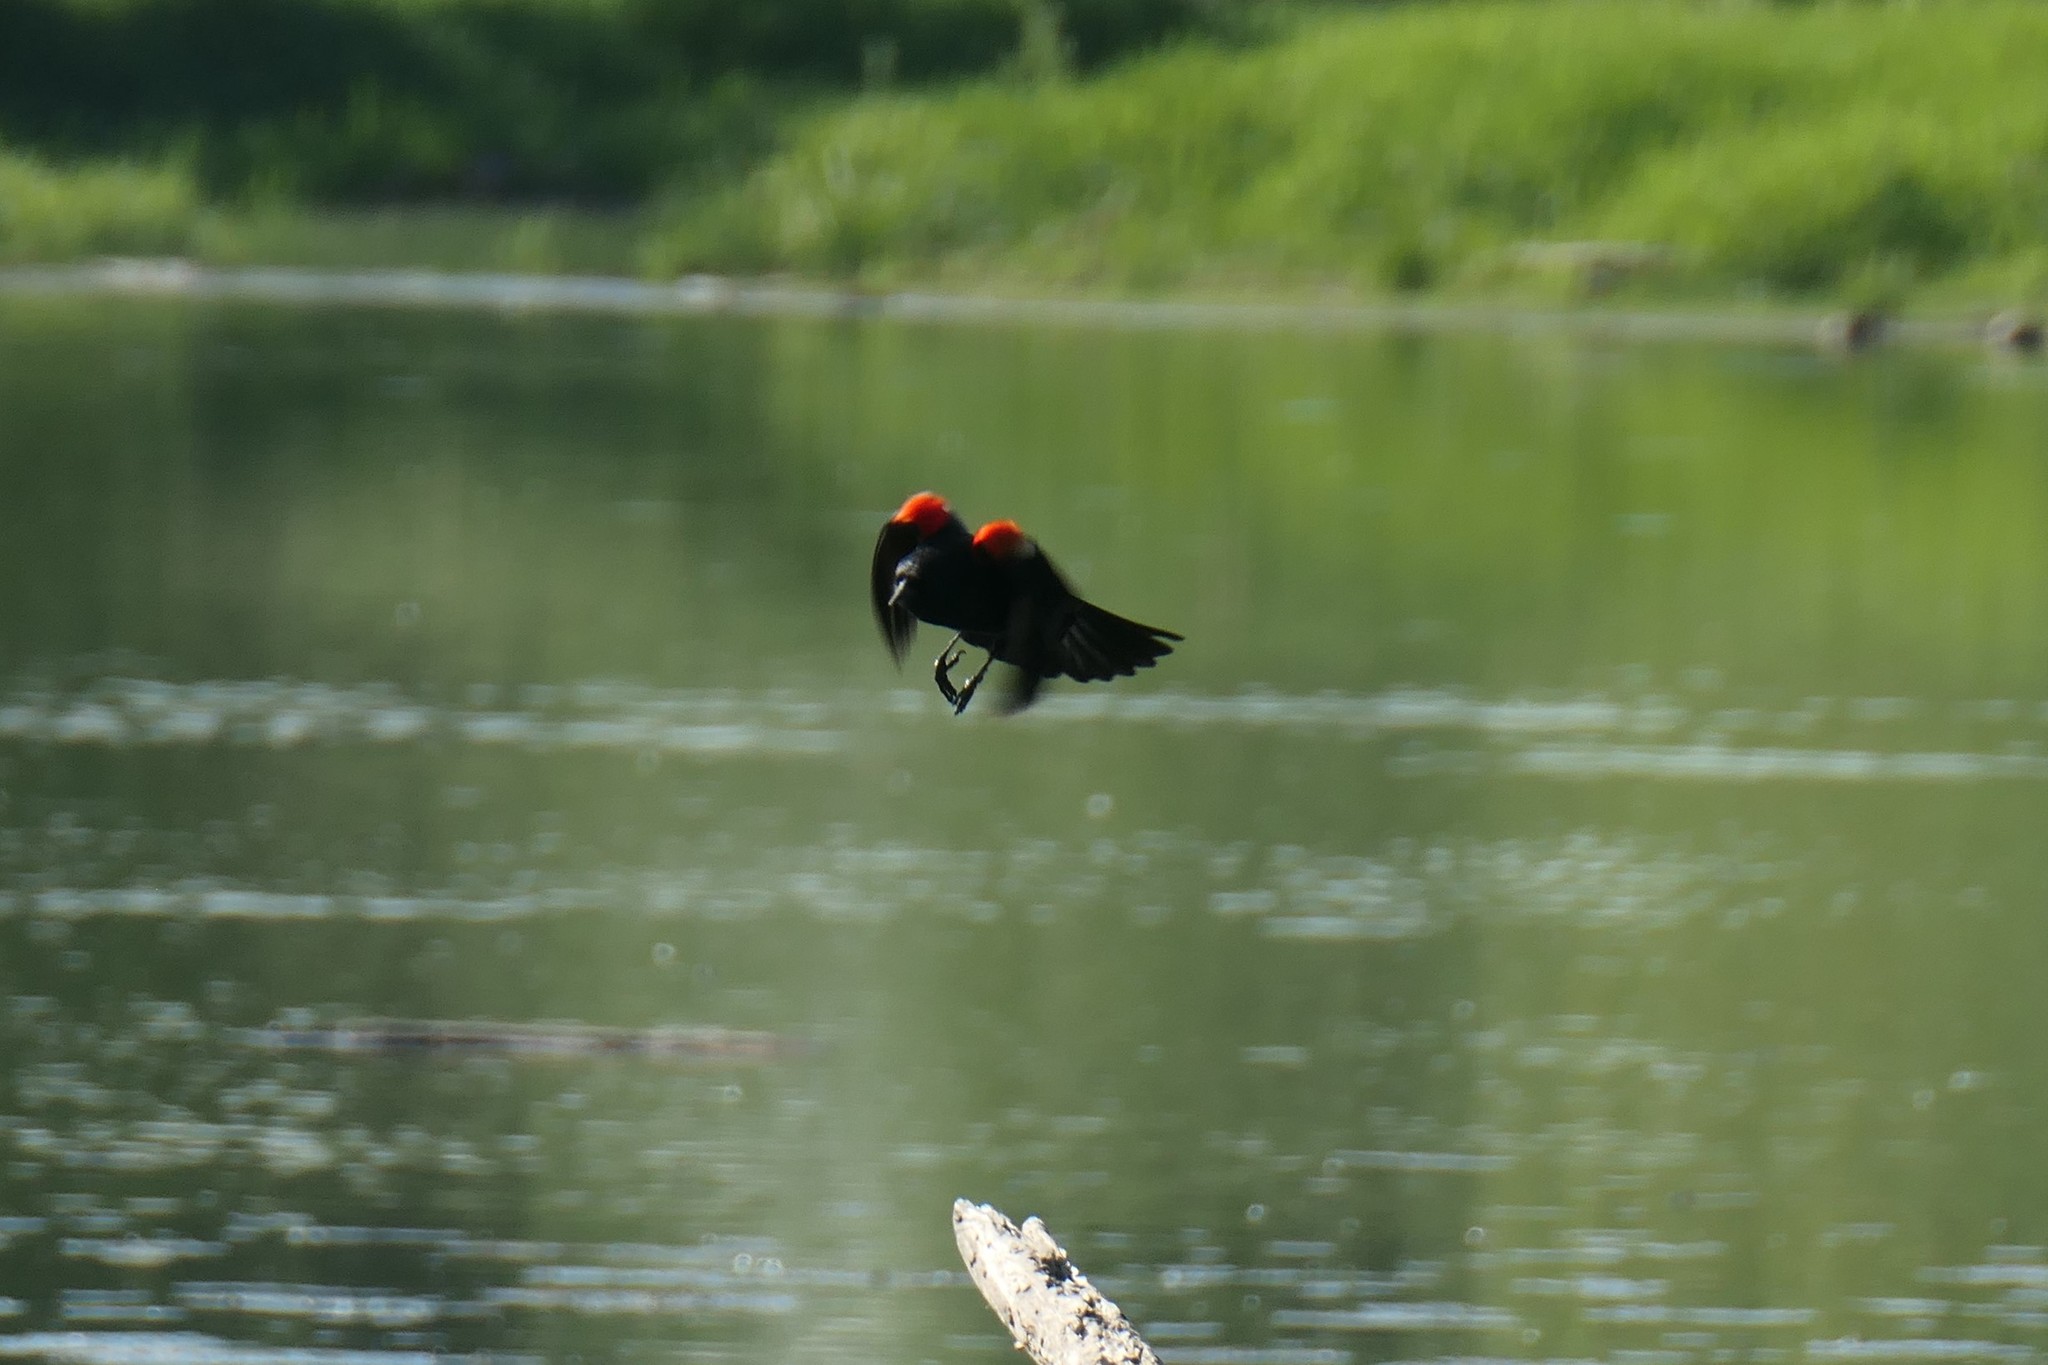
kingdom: Animalia
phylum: Chordata
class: Aves
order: Passeriformes
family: Icteridae
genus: Agelaius
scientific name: Agelaius phoeniceus
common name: Red-winged blackbird
